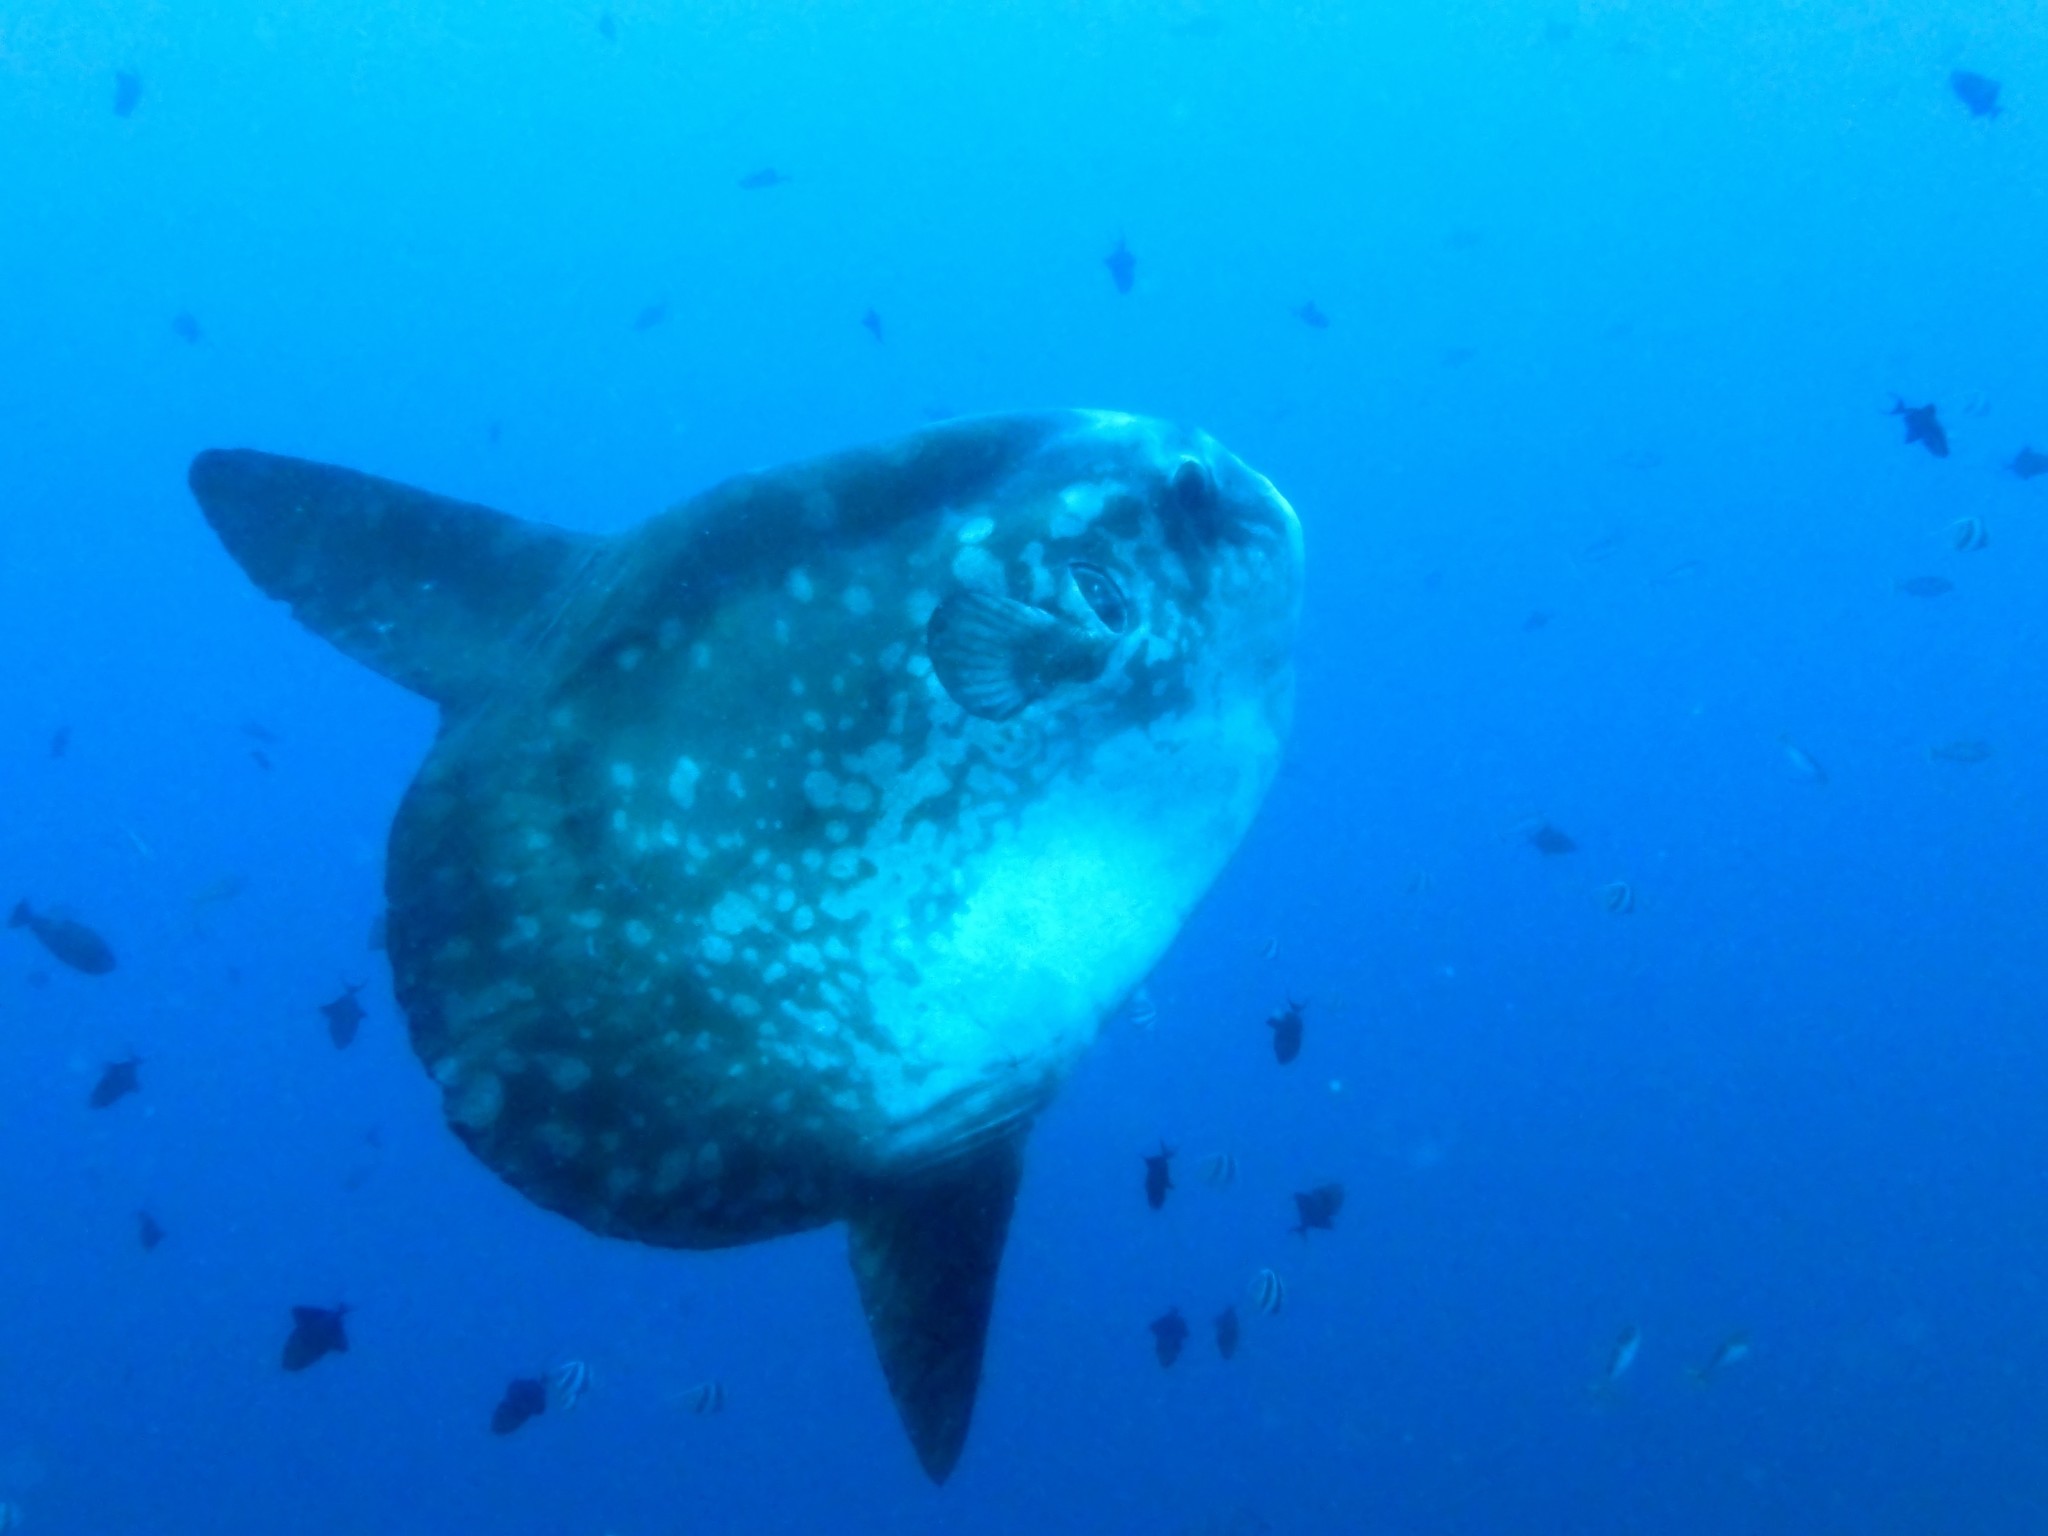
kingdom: Animalia
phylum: Chordata
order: Tetraodontiformes
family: Molidae
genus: Mola
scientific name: Mola mola
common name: Ocean sunfish
